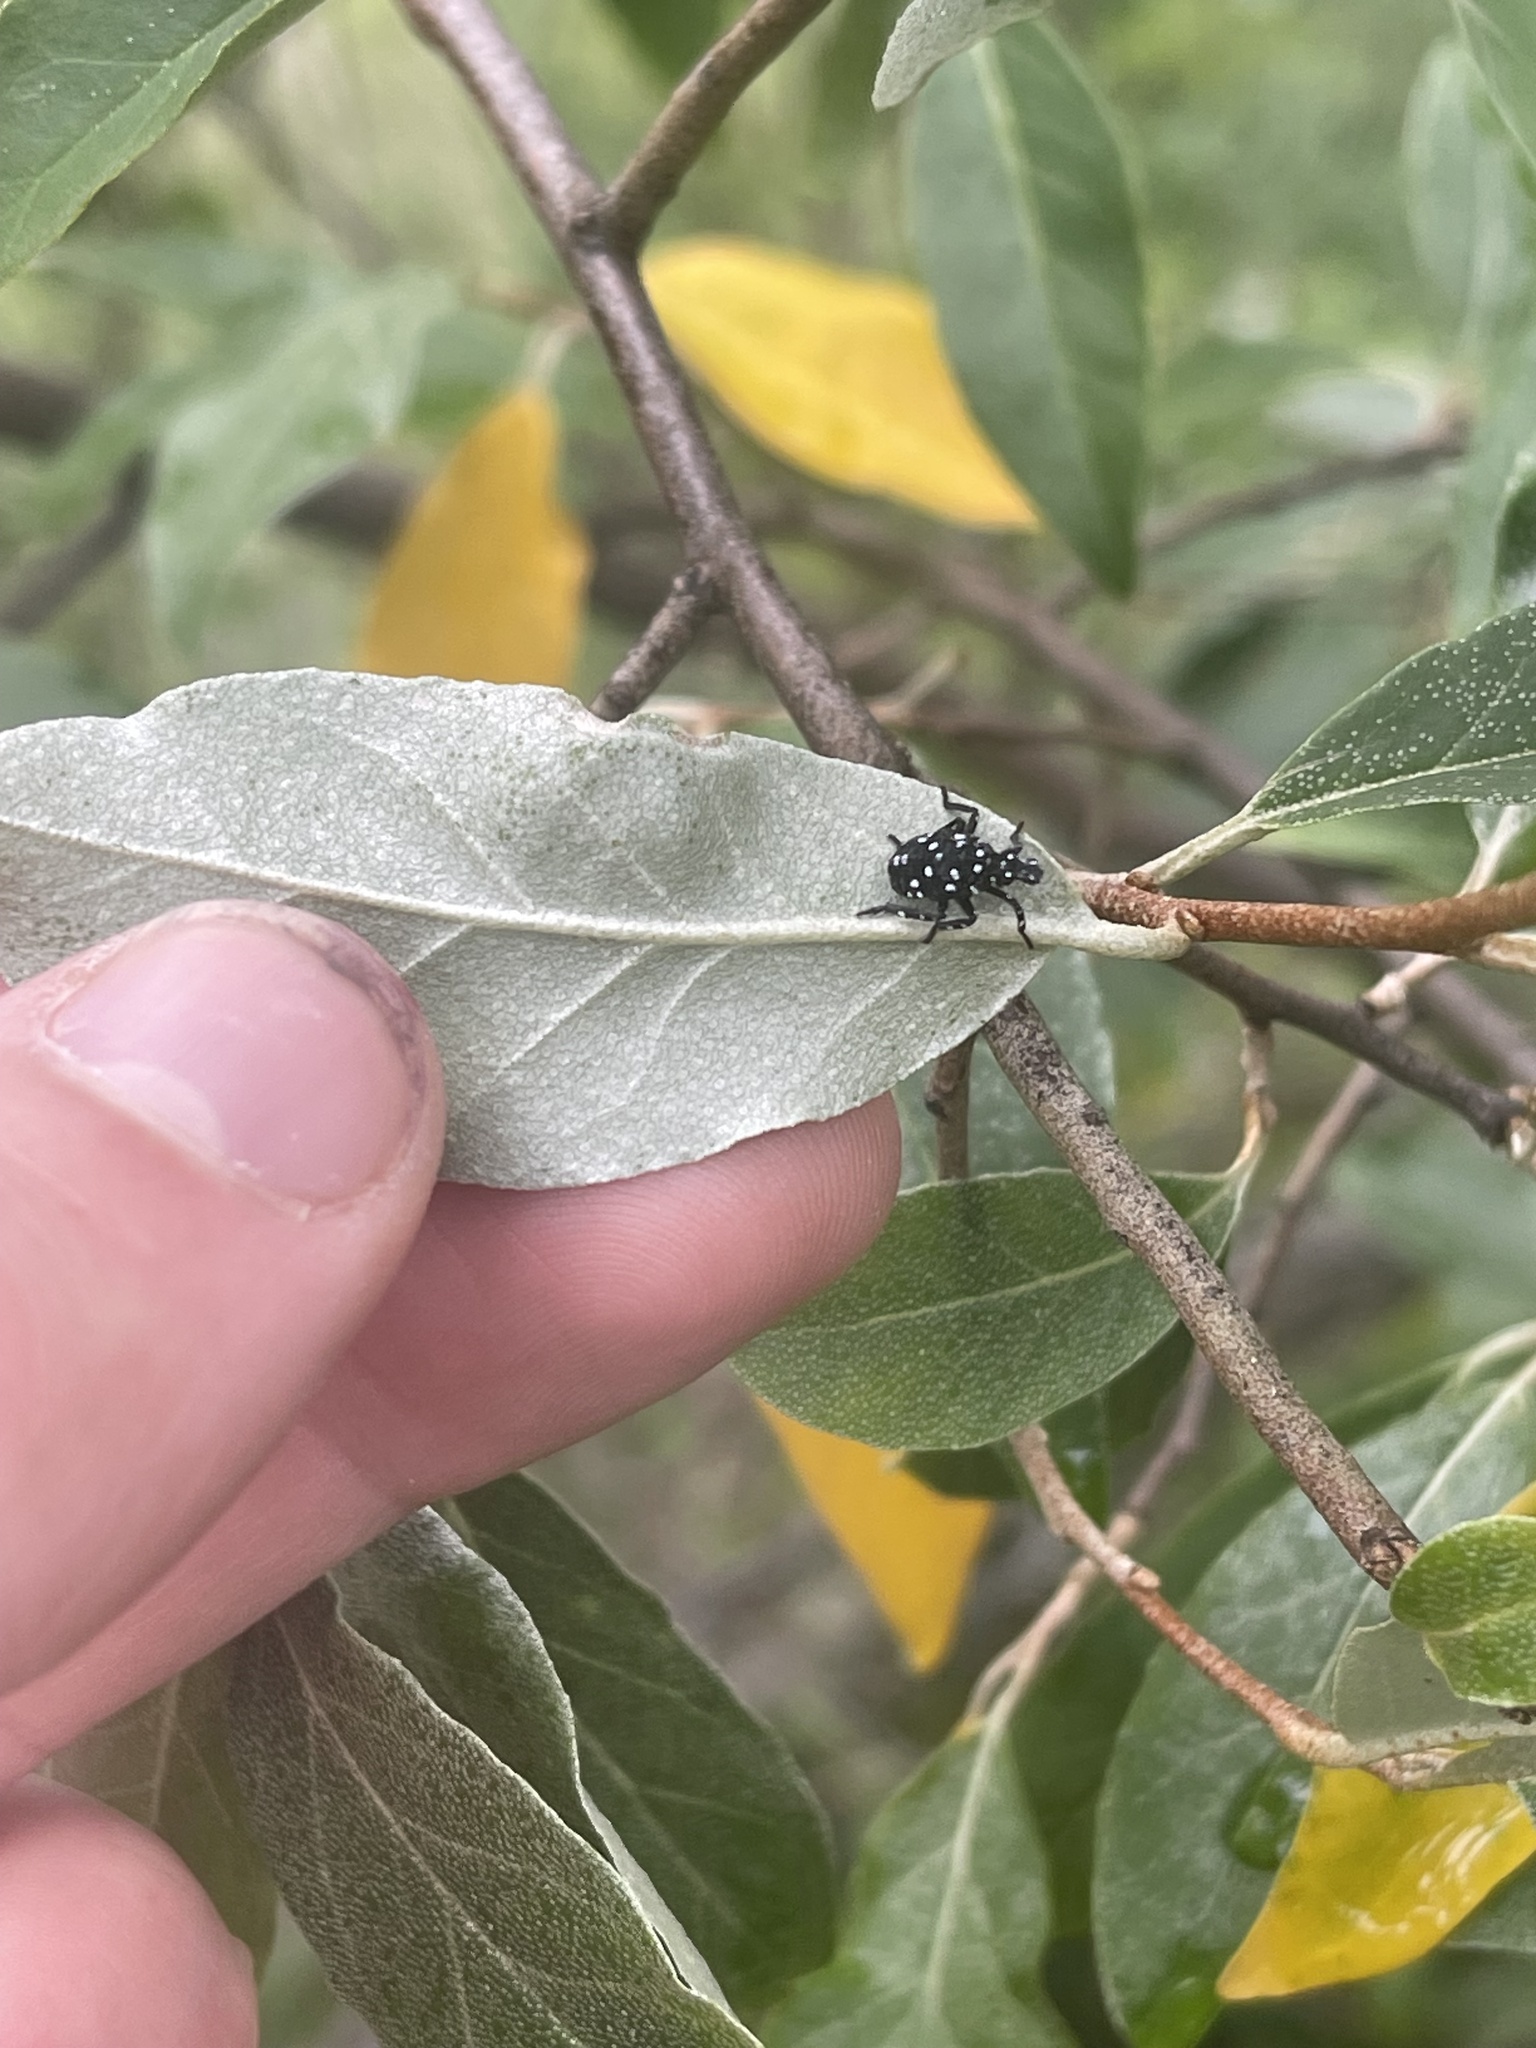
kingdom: Animalia
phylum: Arthropoda
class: Insecta
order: Hemiptera
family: Fulgoridae
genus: Lycorma
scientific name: Lycorma delicatula
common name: Spotted lanternfly
